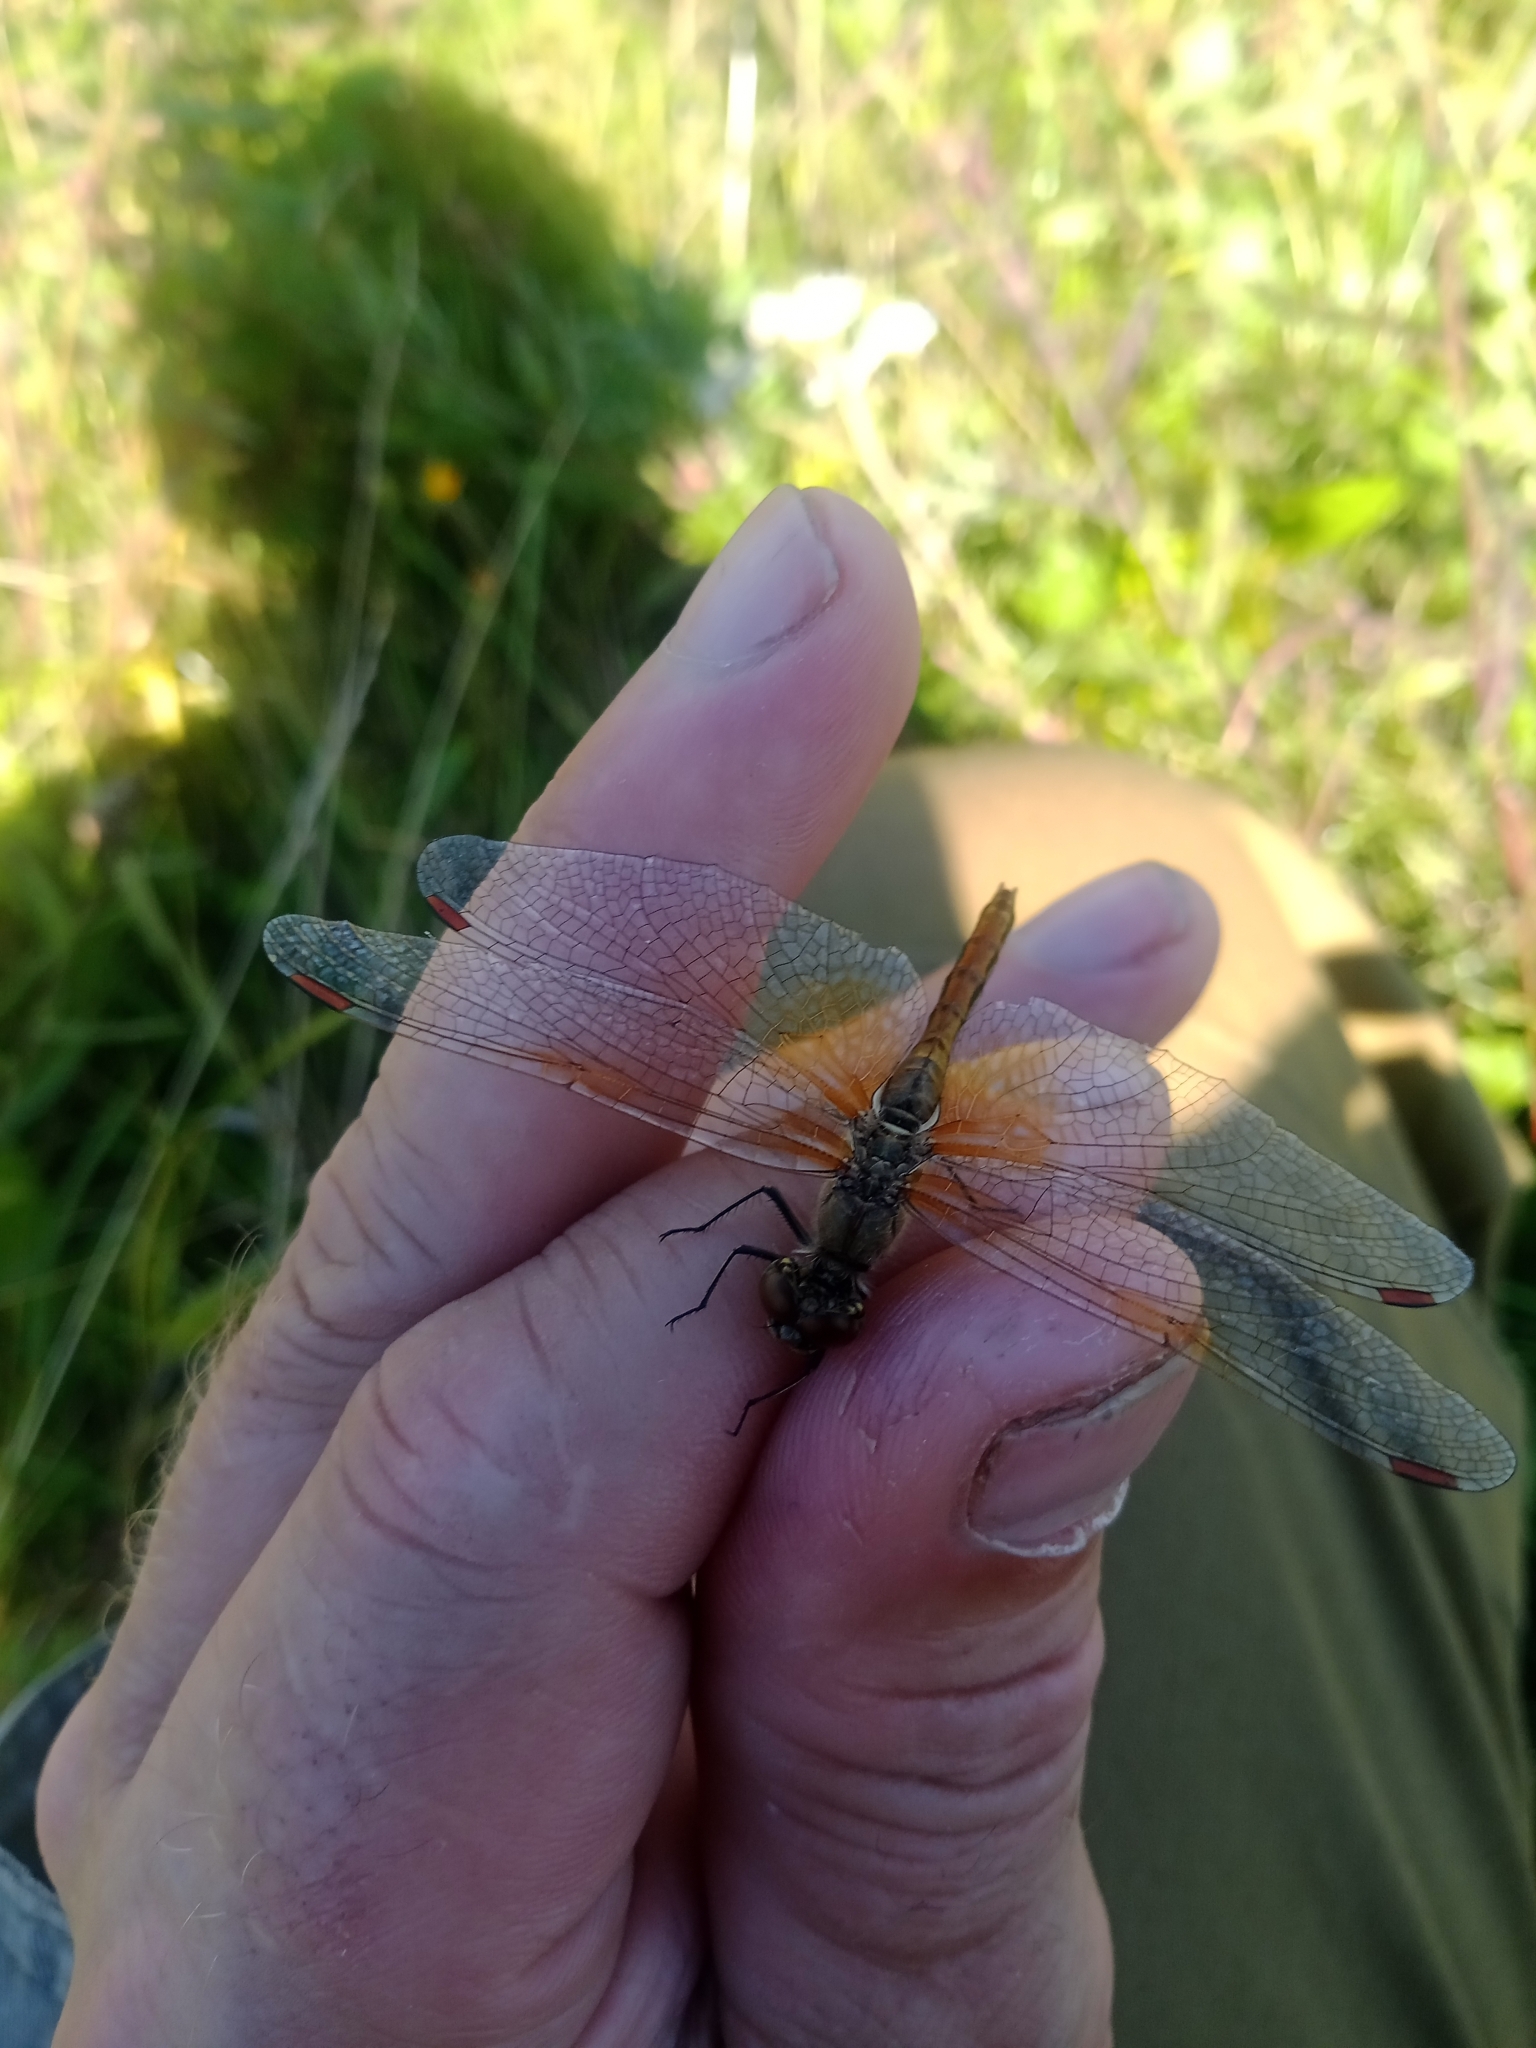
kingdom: Animalia
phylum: Arthropoda
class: Insecta
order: Odonata
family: Libellulidae
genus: Sympetrum
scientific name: Sympetrum flaveolum
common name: Yellow-winged darter
